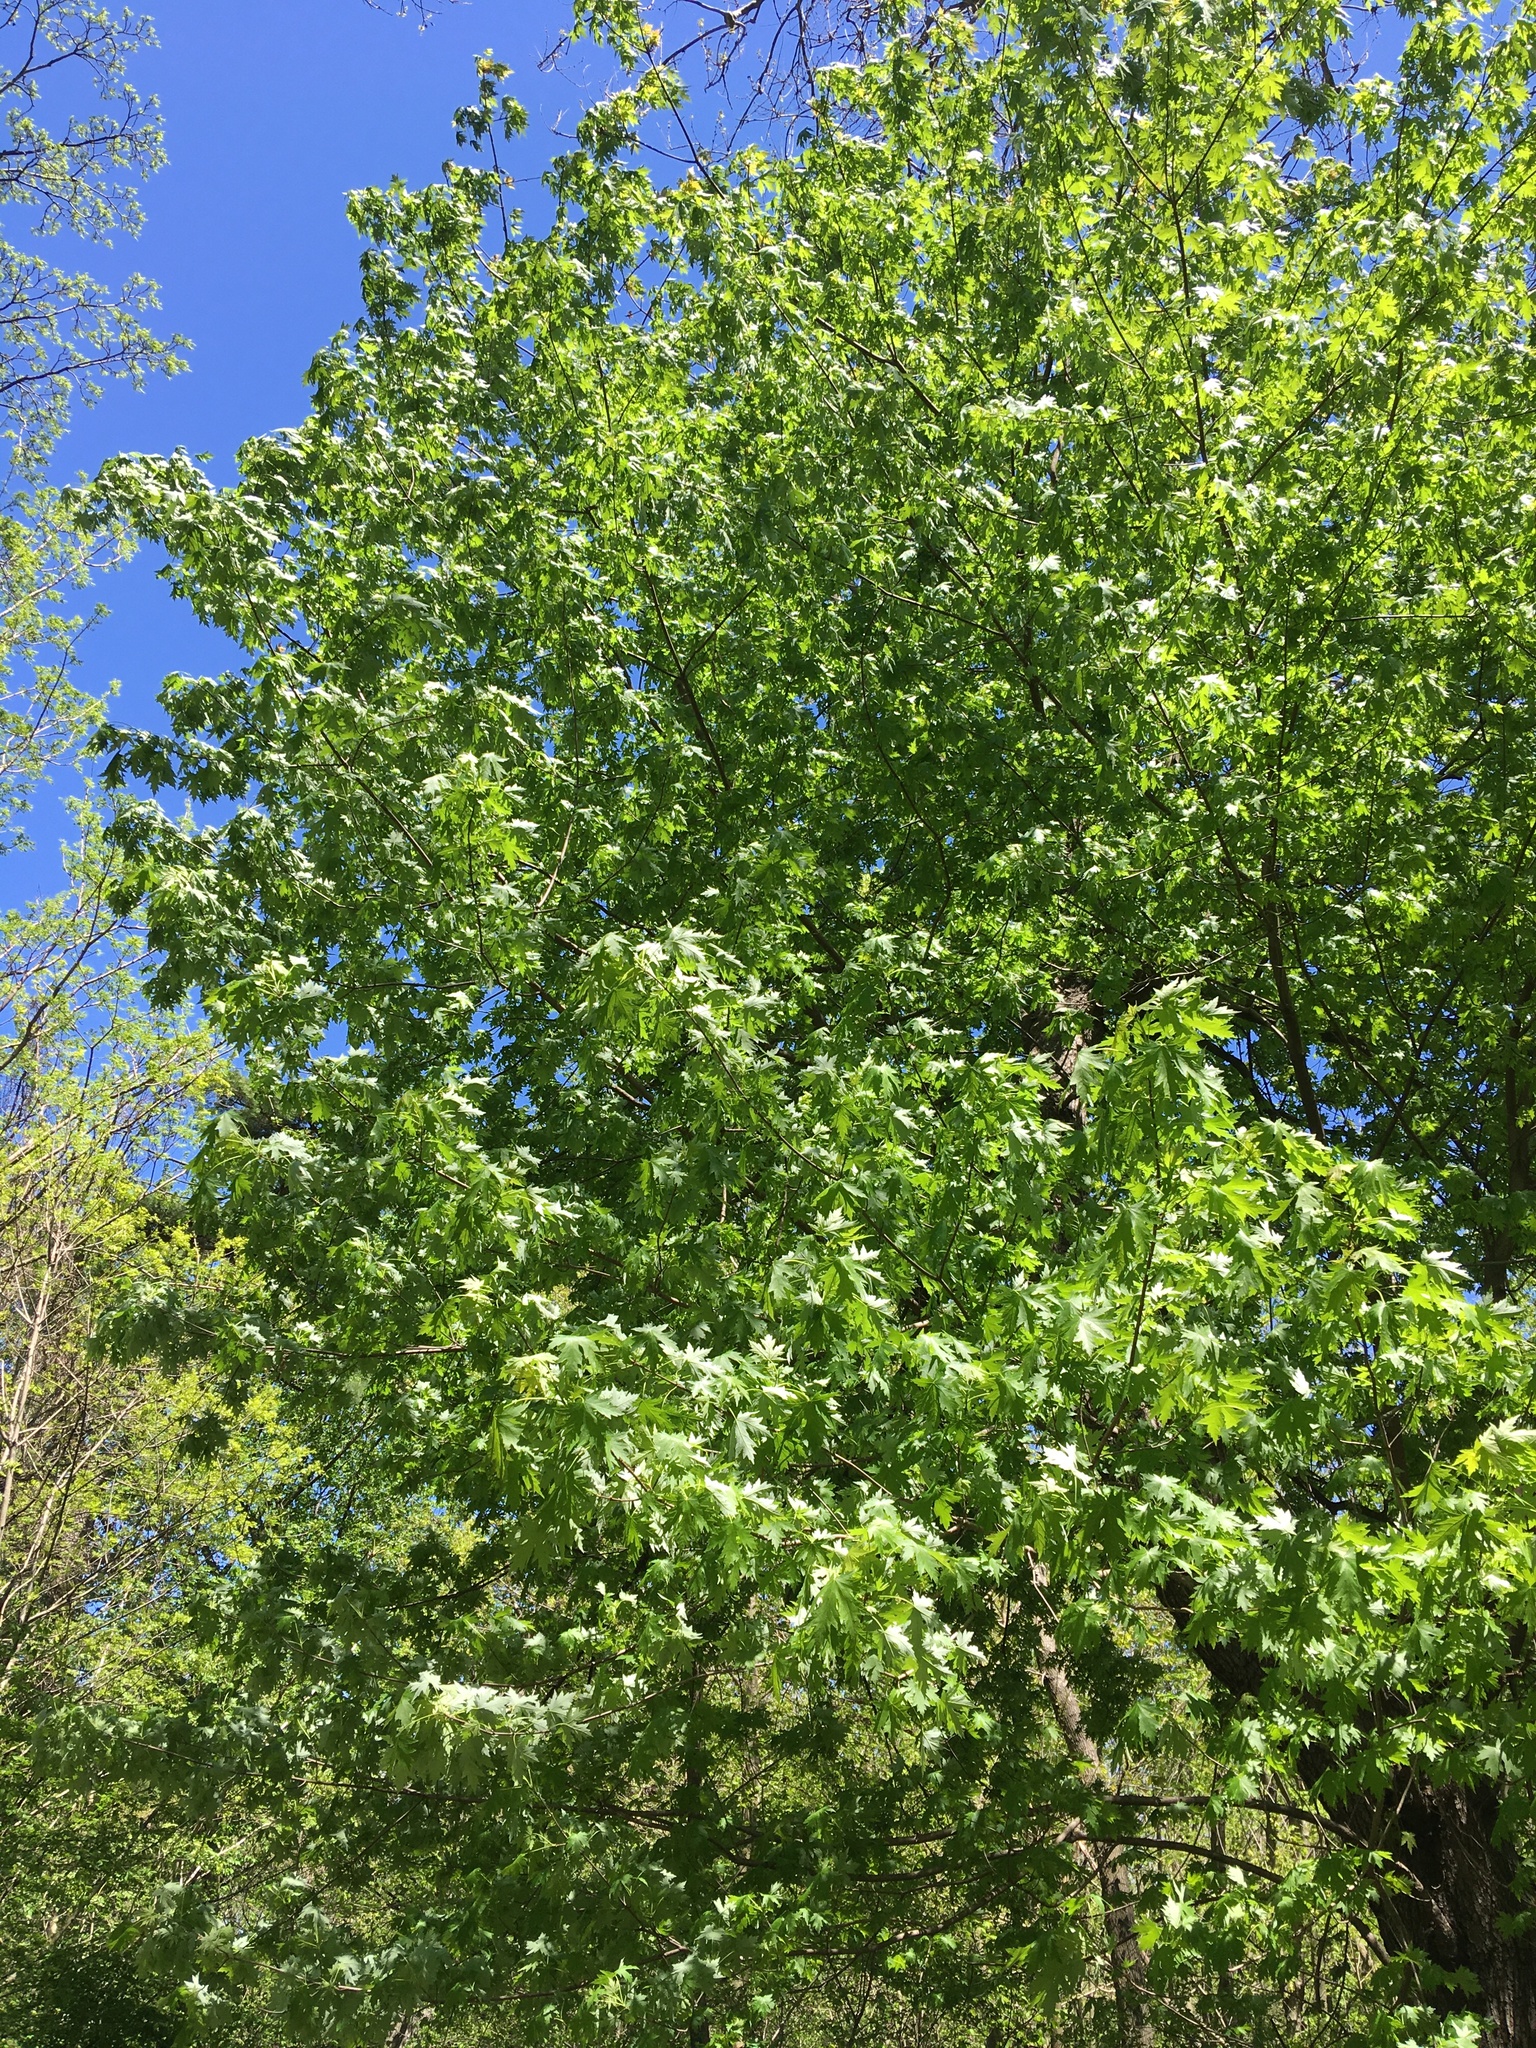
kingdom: Plantae
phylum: Tracheophyta
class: Magnoliopsida
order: Sapindales
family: Sapindaceae
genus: Acer
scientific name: Acer saccharinum
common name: Silver maple
